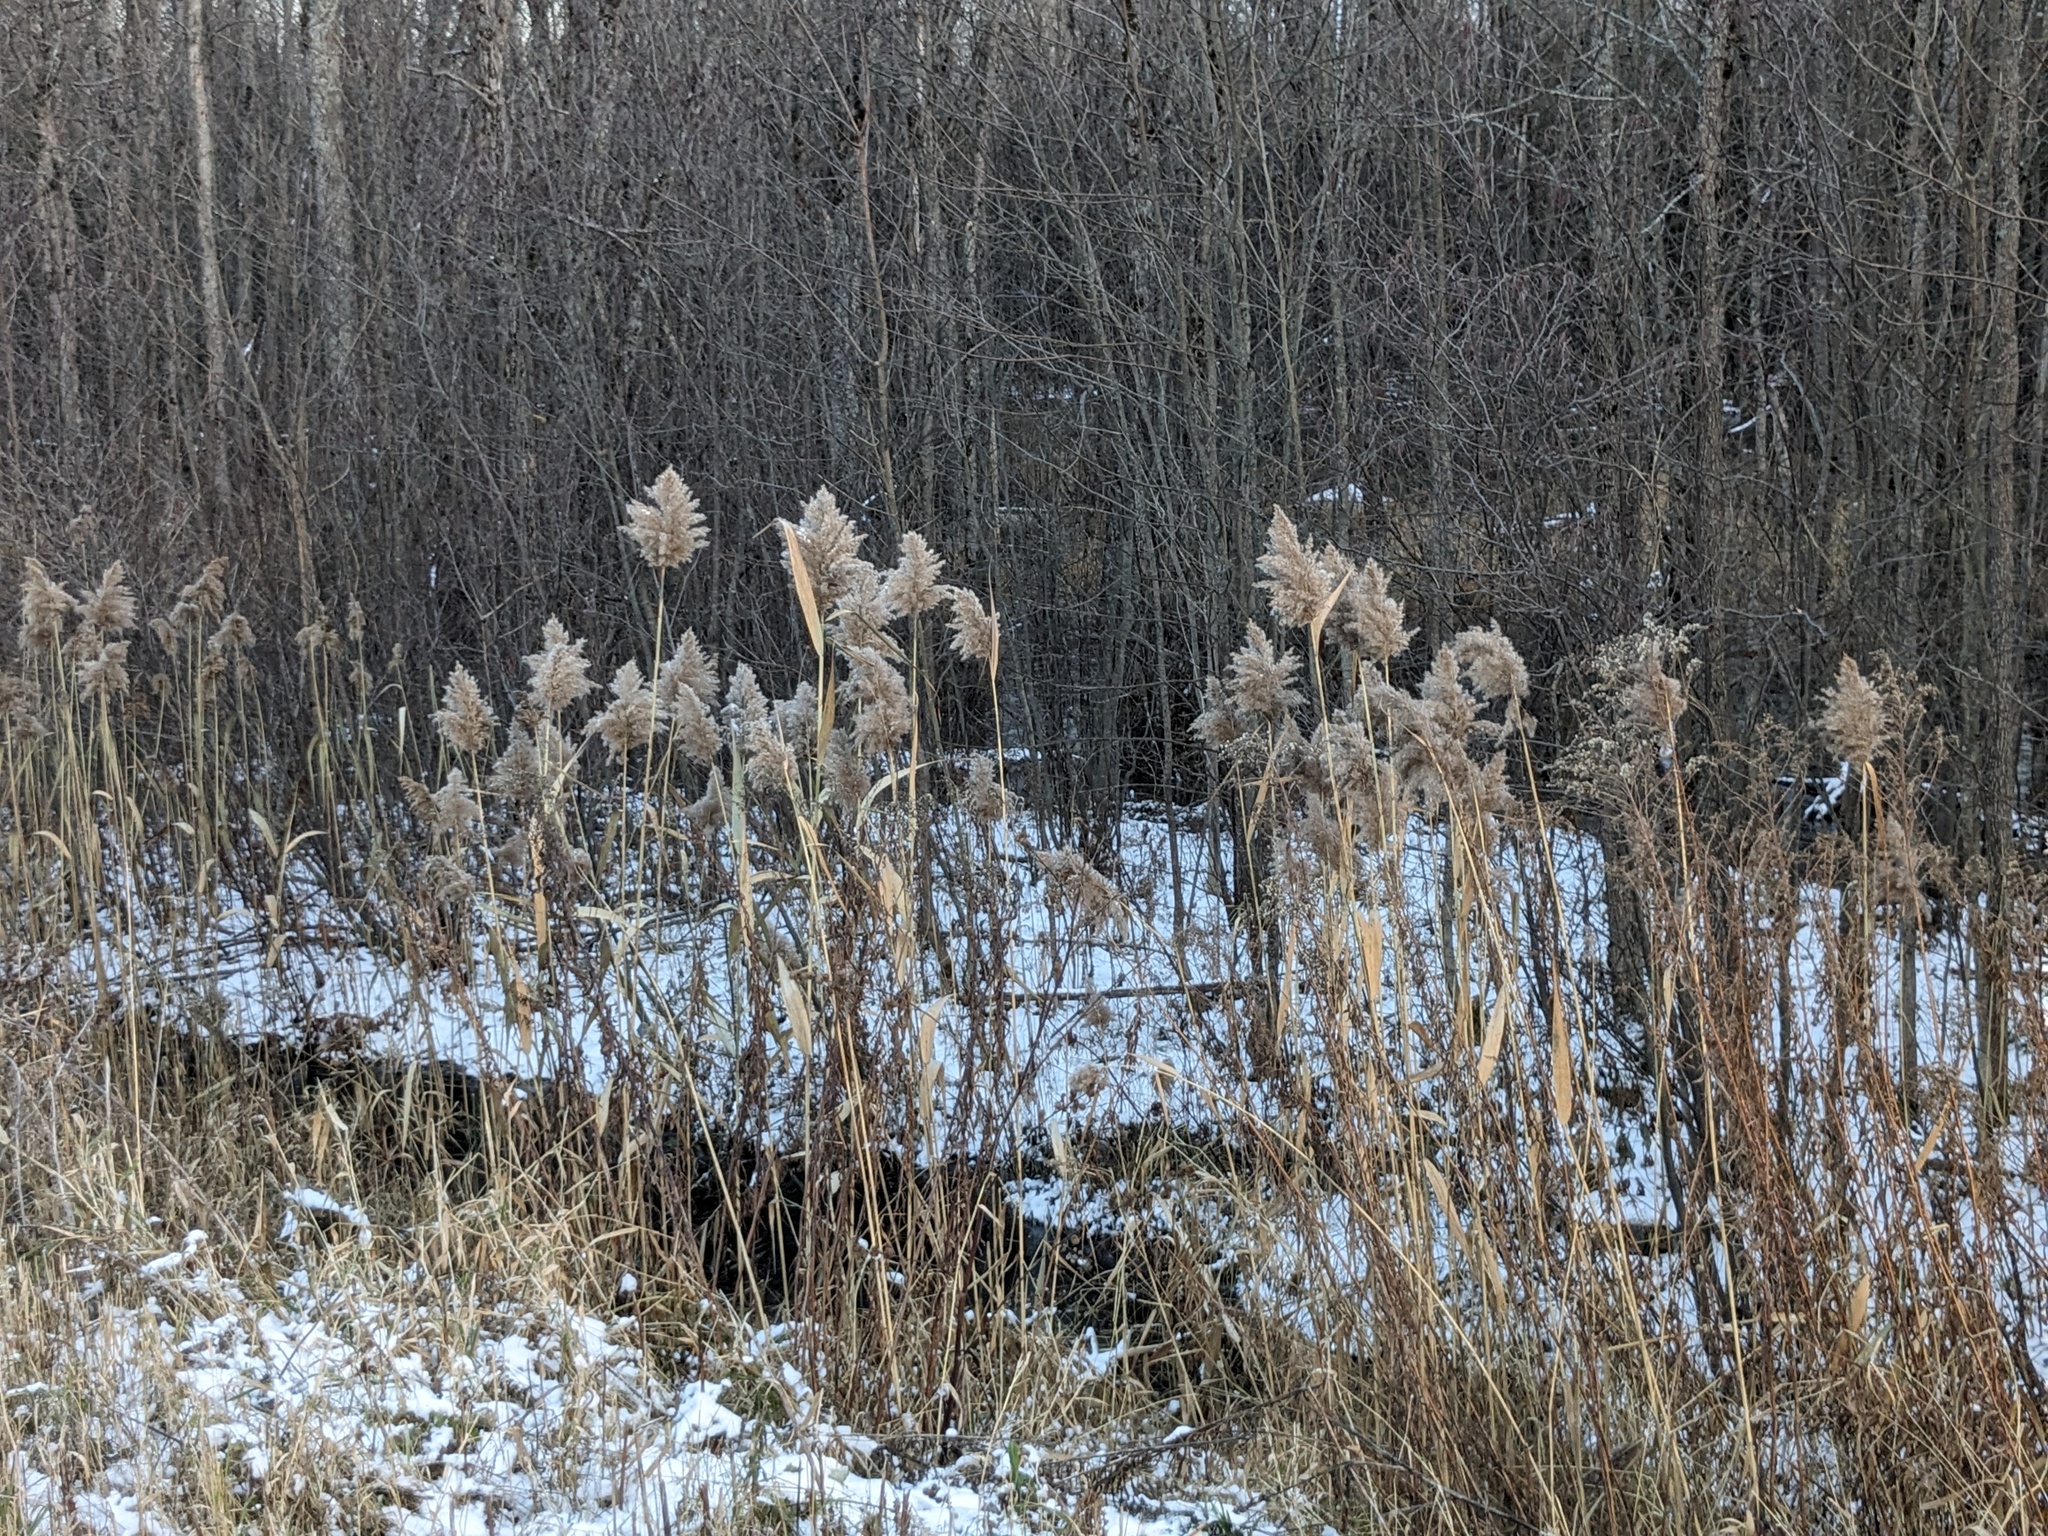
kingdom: Plantae
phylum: Tracheophyta
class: Liliopsida
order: Poales
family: Poaceae
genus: Phragmites
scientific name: Phragmites australis
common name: Common reed
